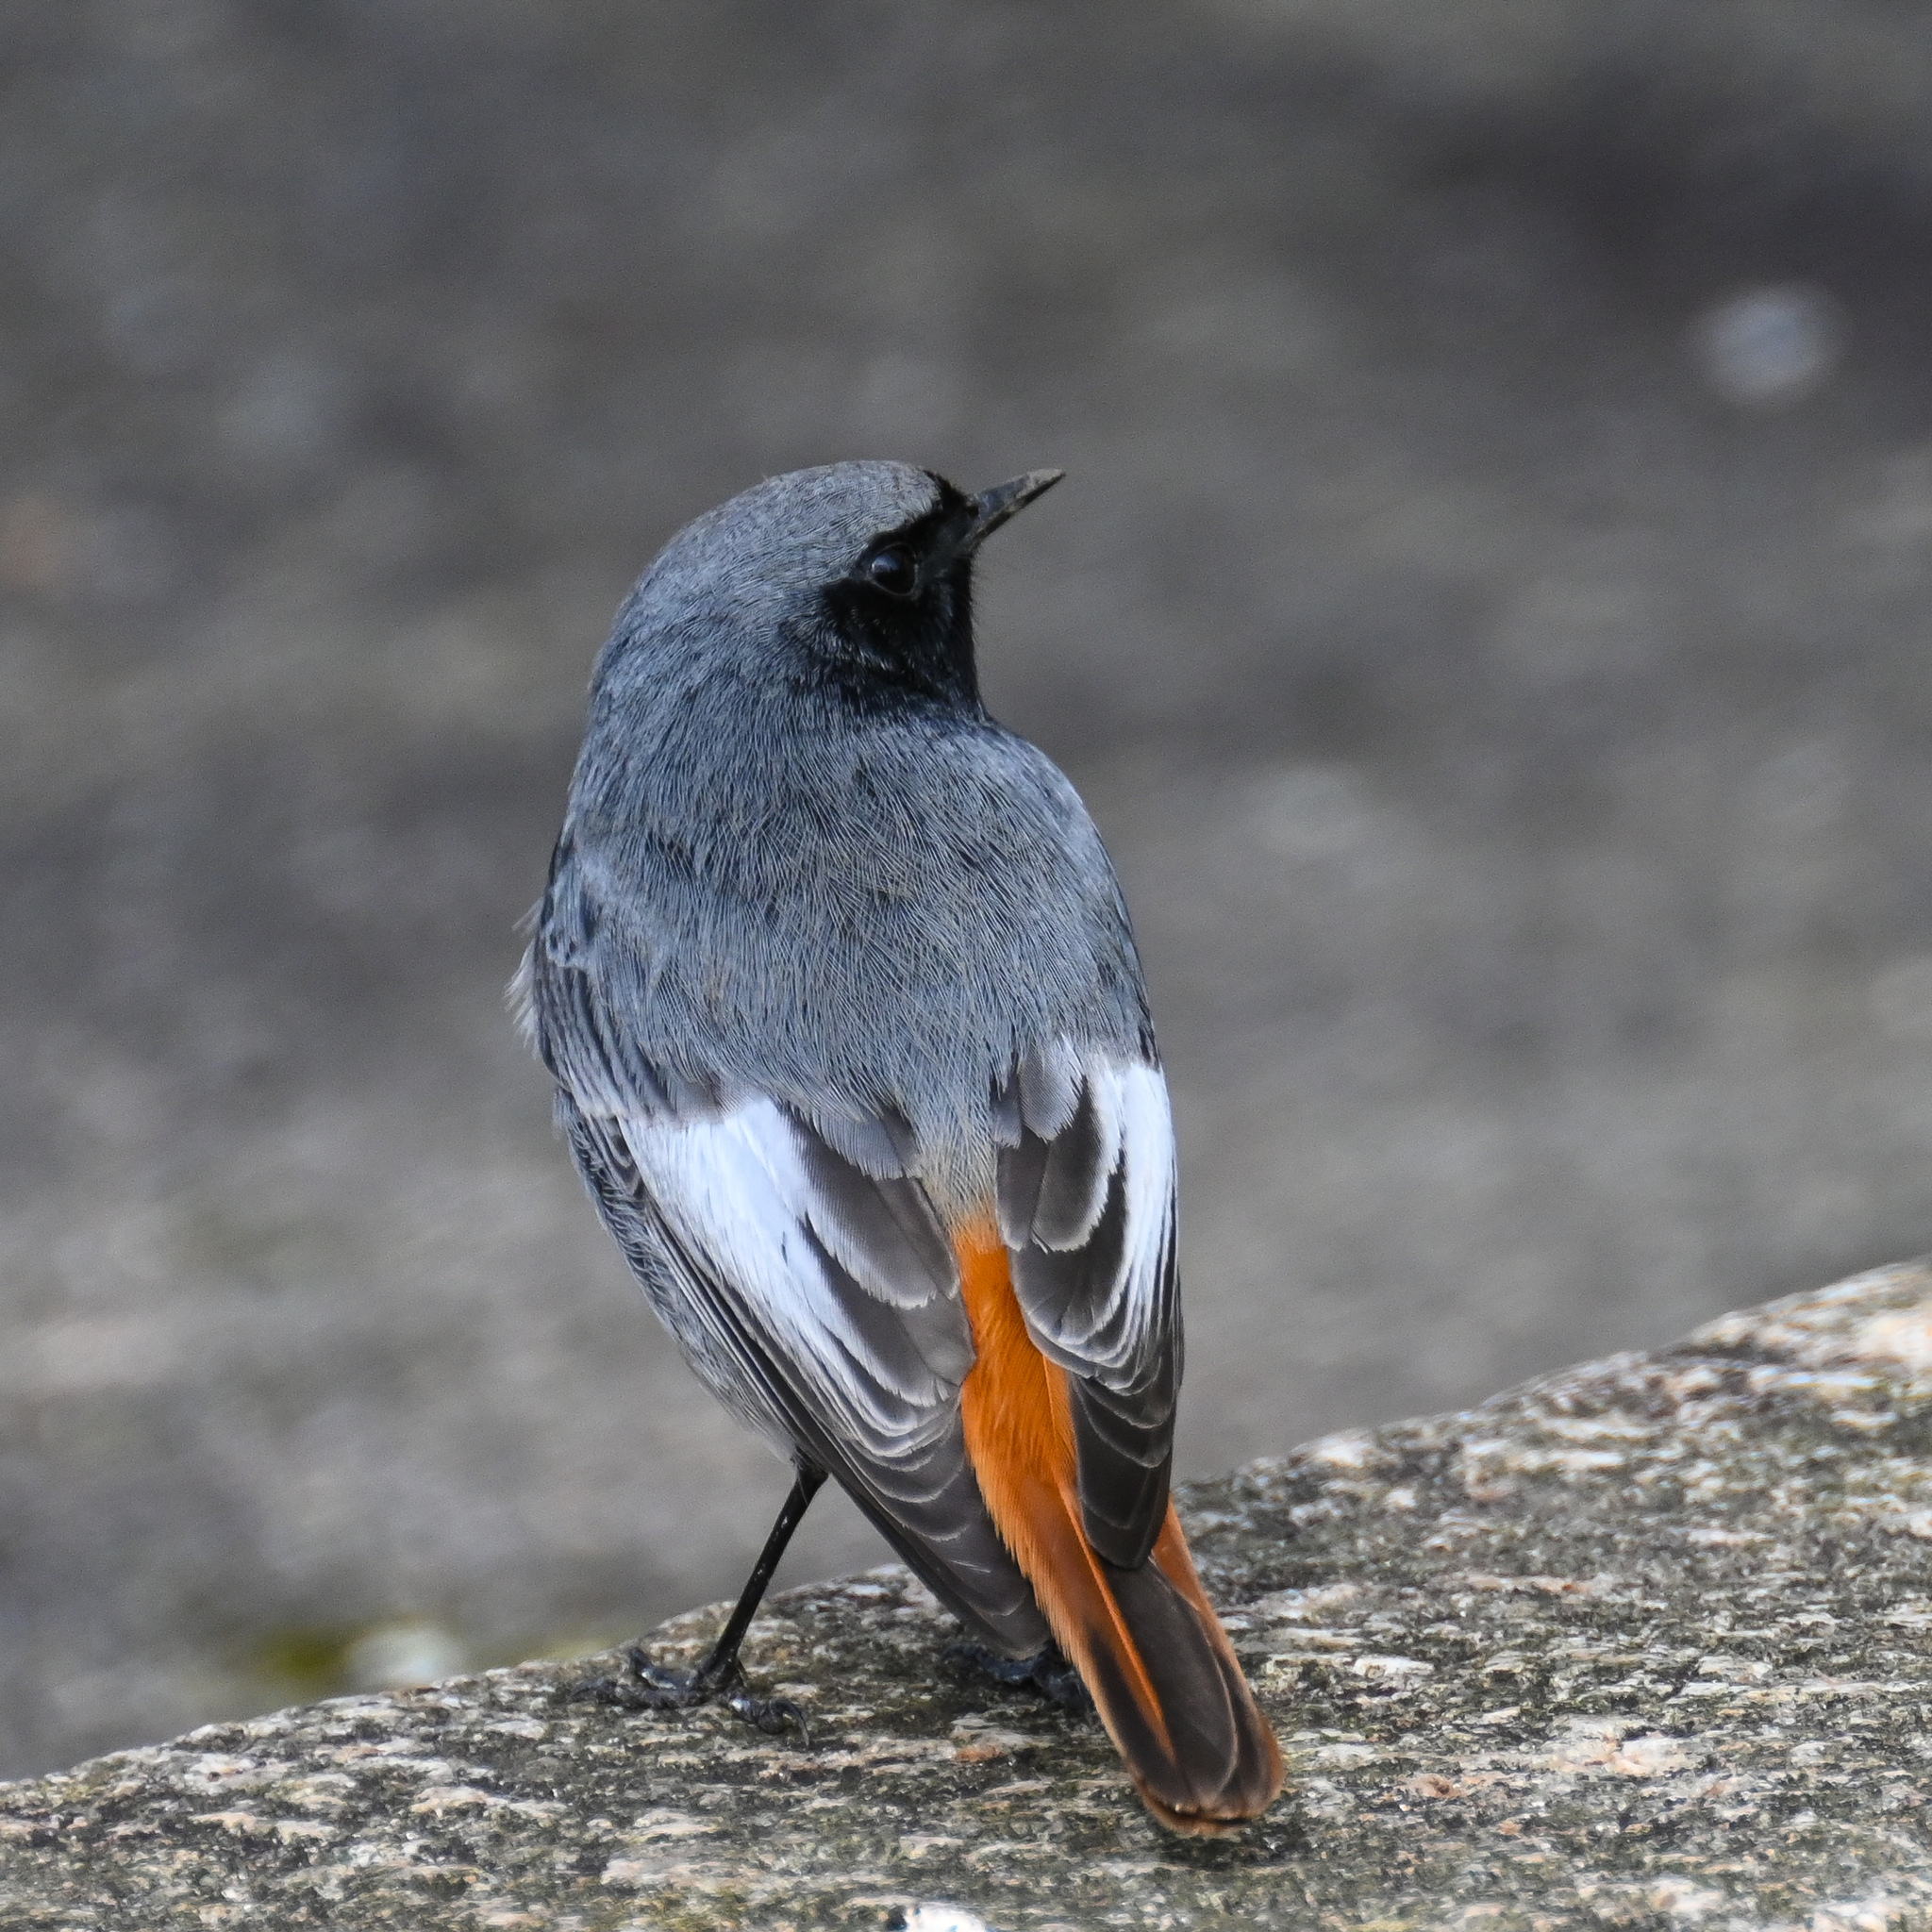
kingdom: Animalia
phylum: Chordata
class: Aves
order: Passeriformes
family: Muscicapidae
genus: Phoenicurus
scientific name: Phoenicurus ochruros
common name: Black redstart
